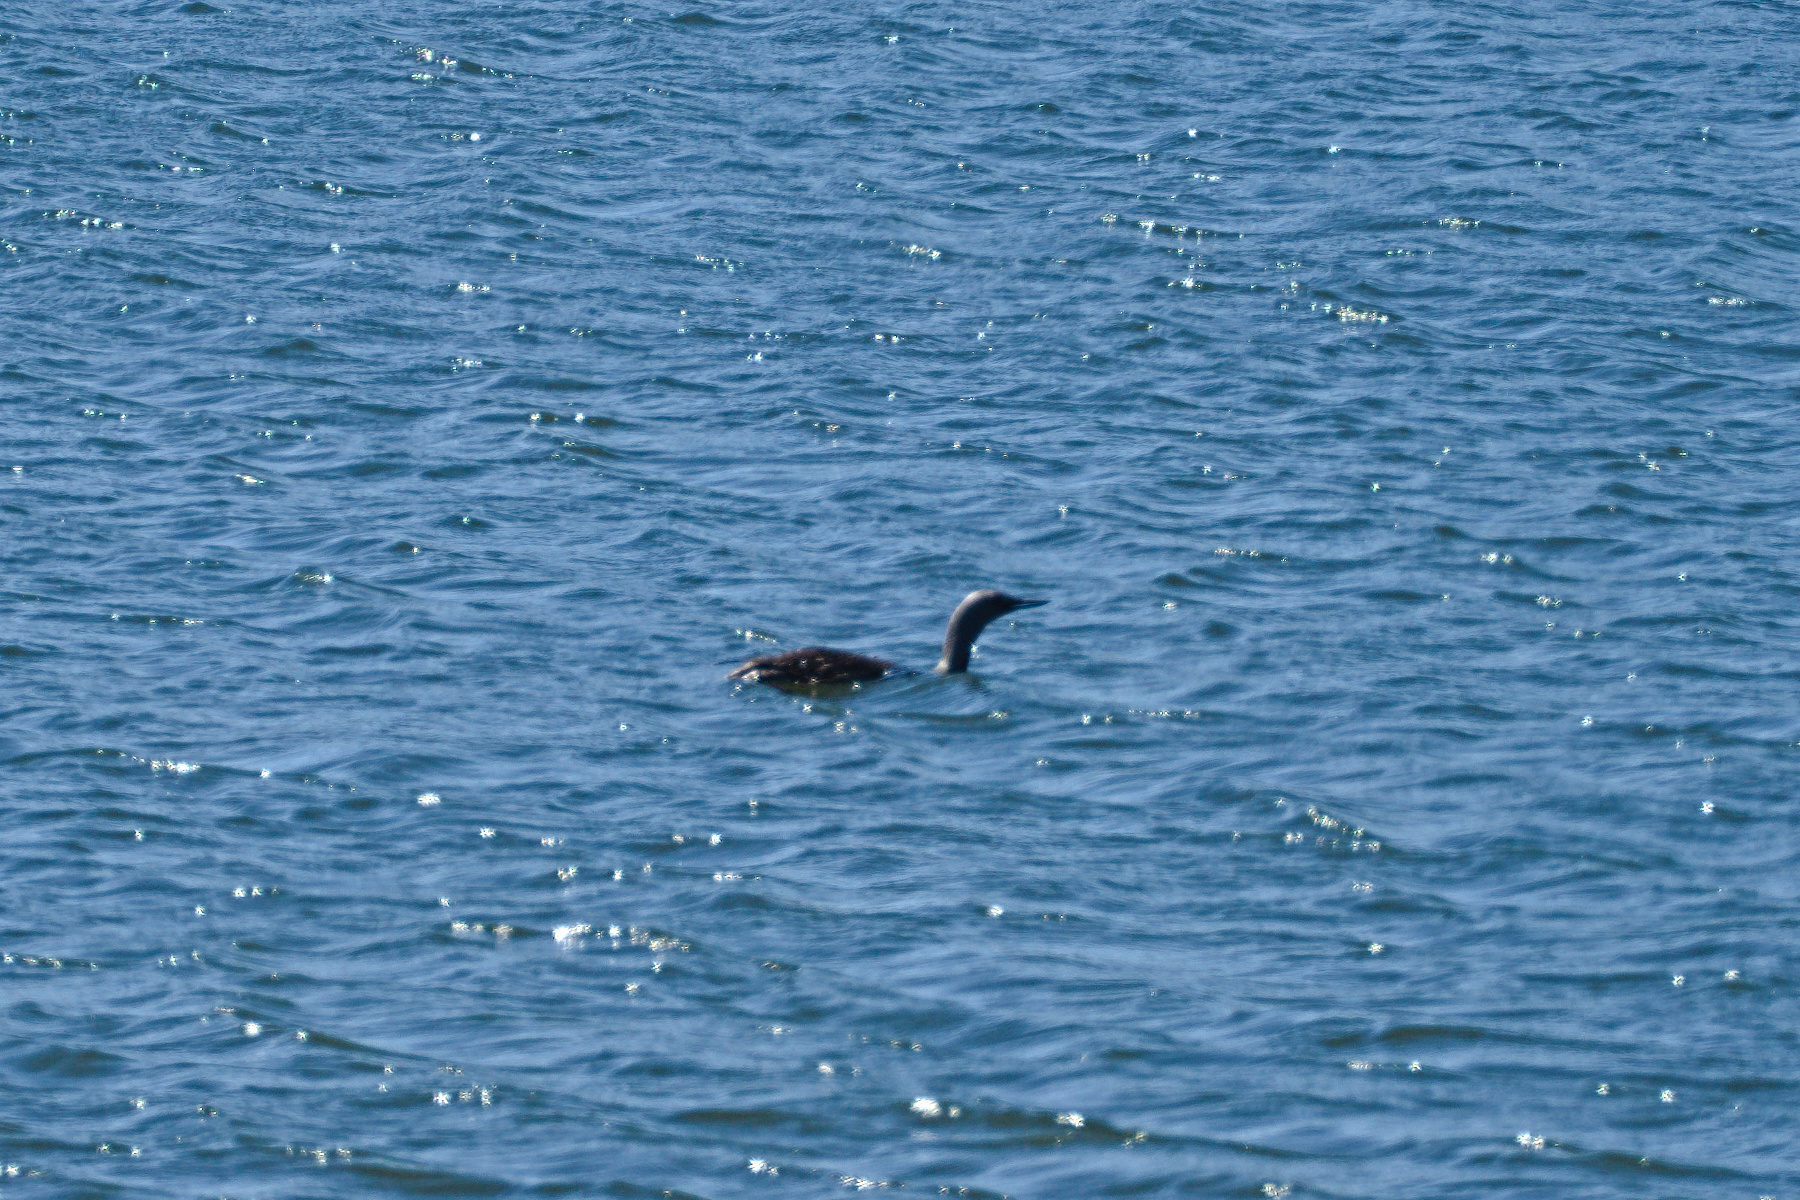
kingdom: Animalia
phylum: Chordata
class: Aves
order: Gaviiformes
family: Gaviidae
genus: Gavia
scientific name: Gavia stellata
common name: Red-throated loon
